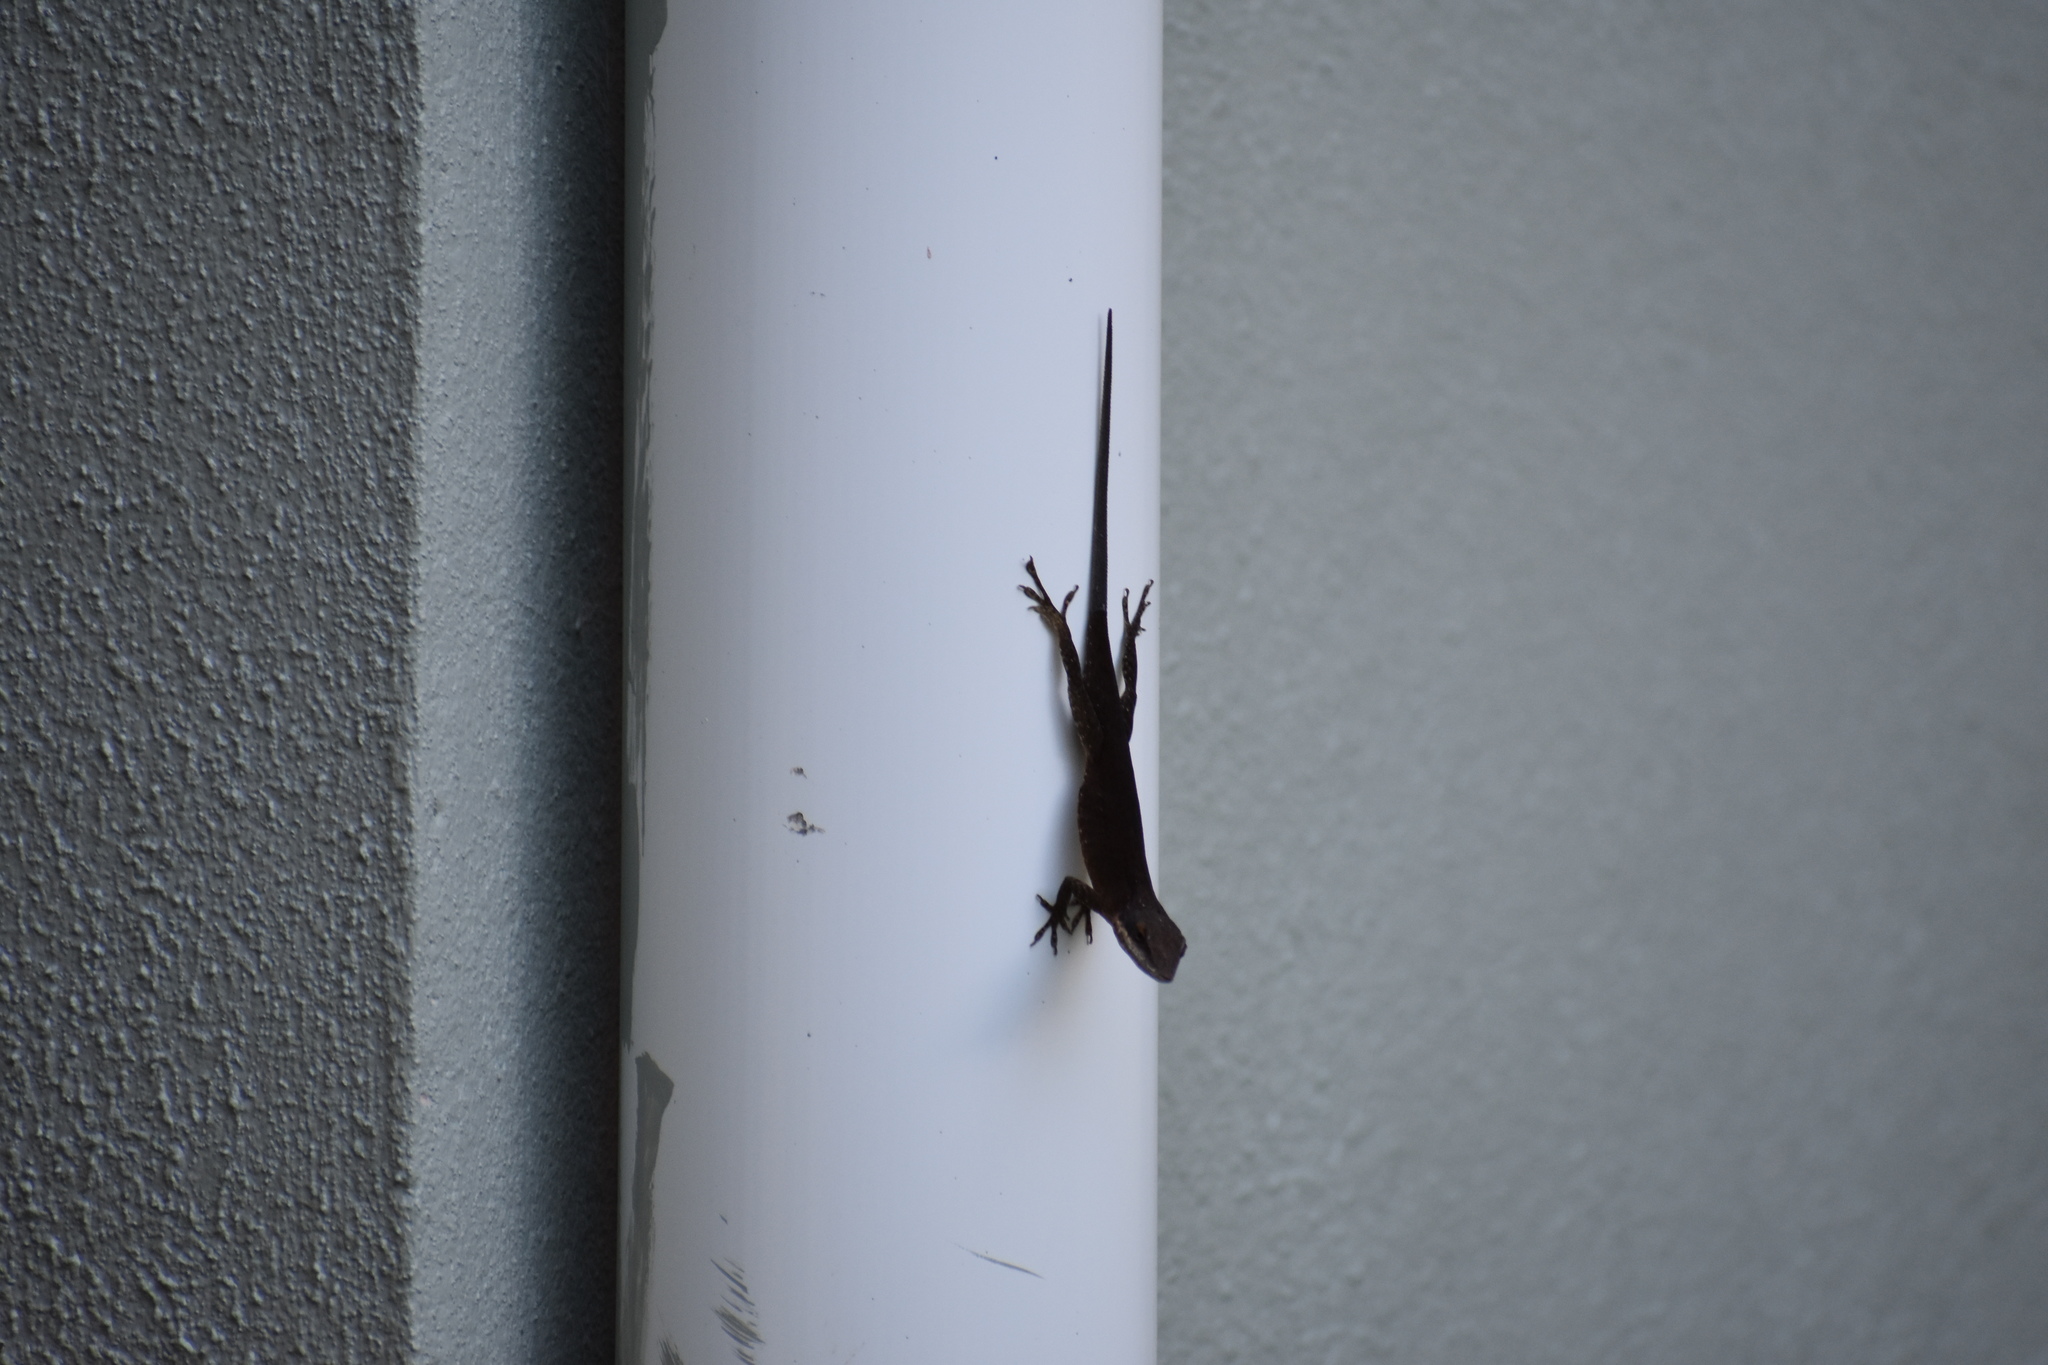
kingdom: Animalia
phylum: Chordata
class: Squamata
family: Dactyloidae
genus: Anolis
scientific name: Anolis carolinensis
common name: Green anole
